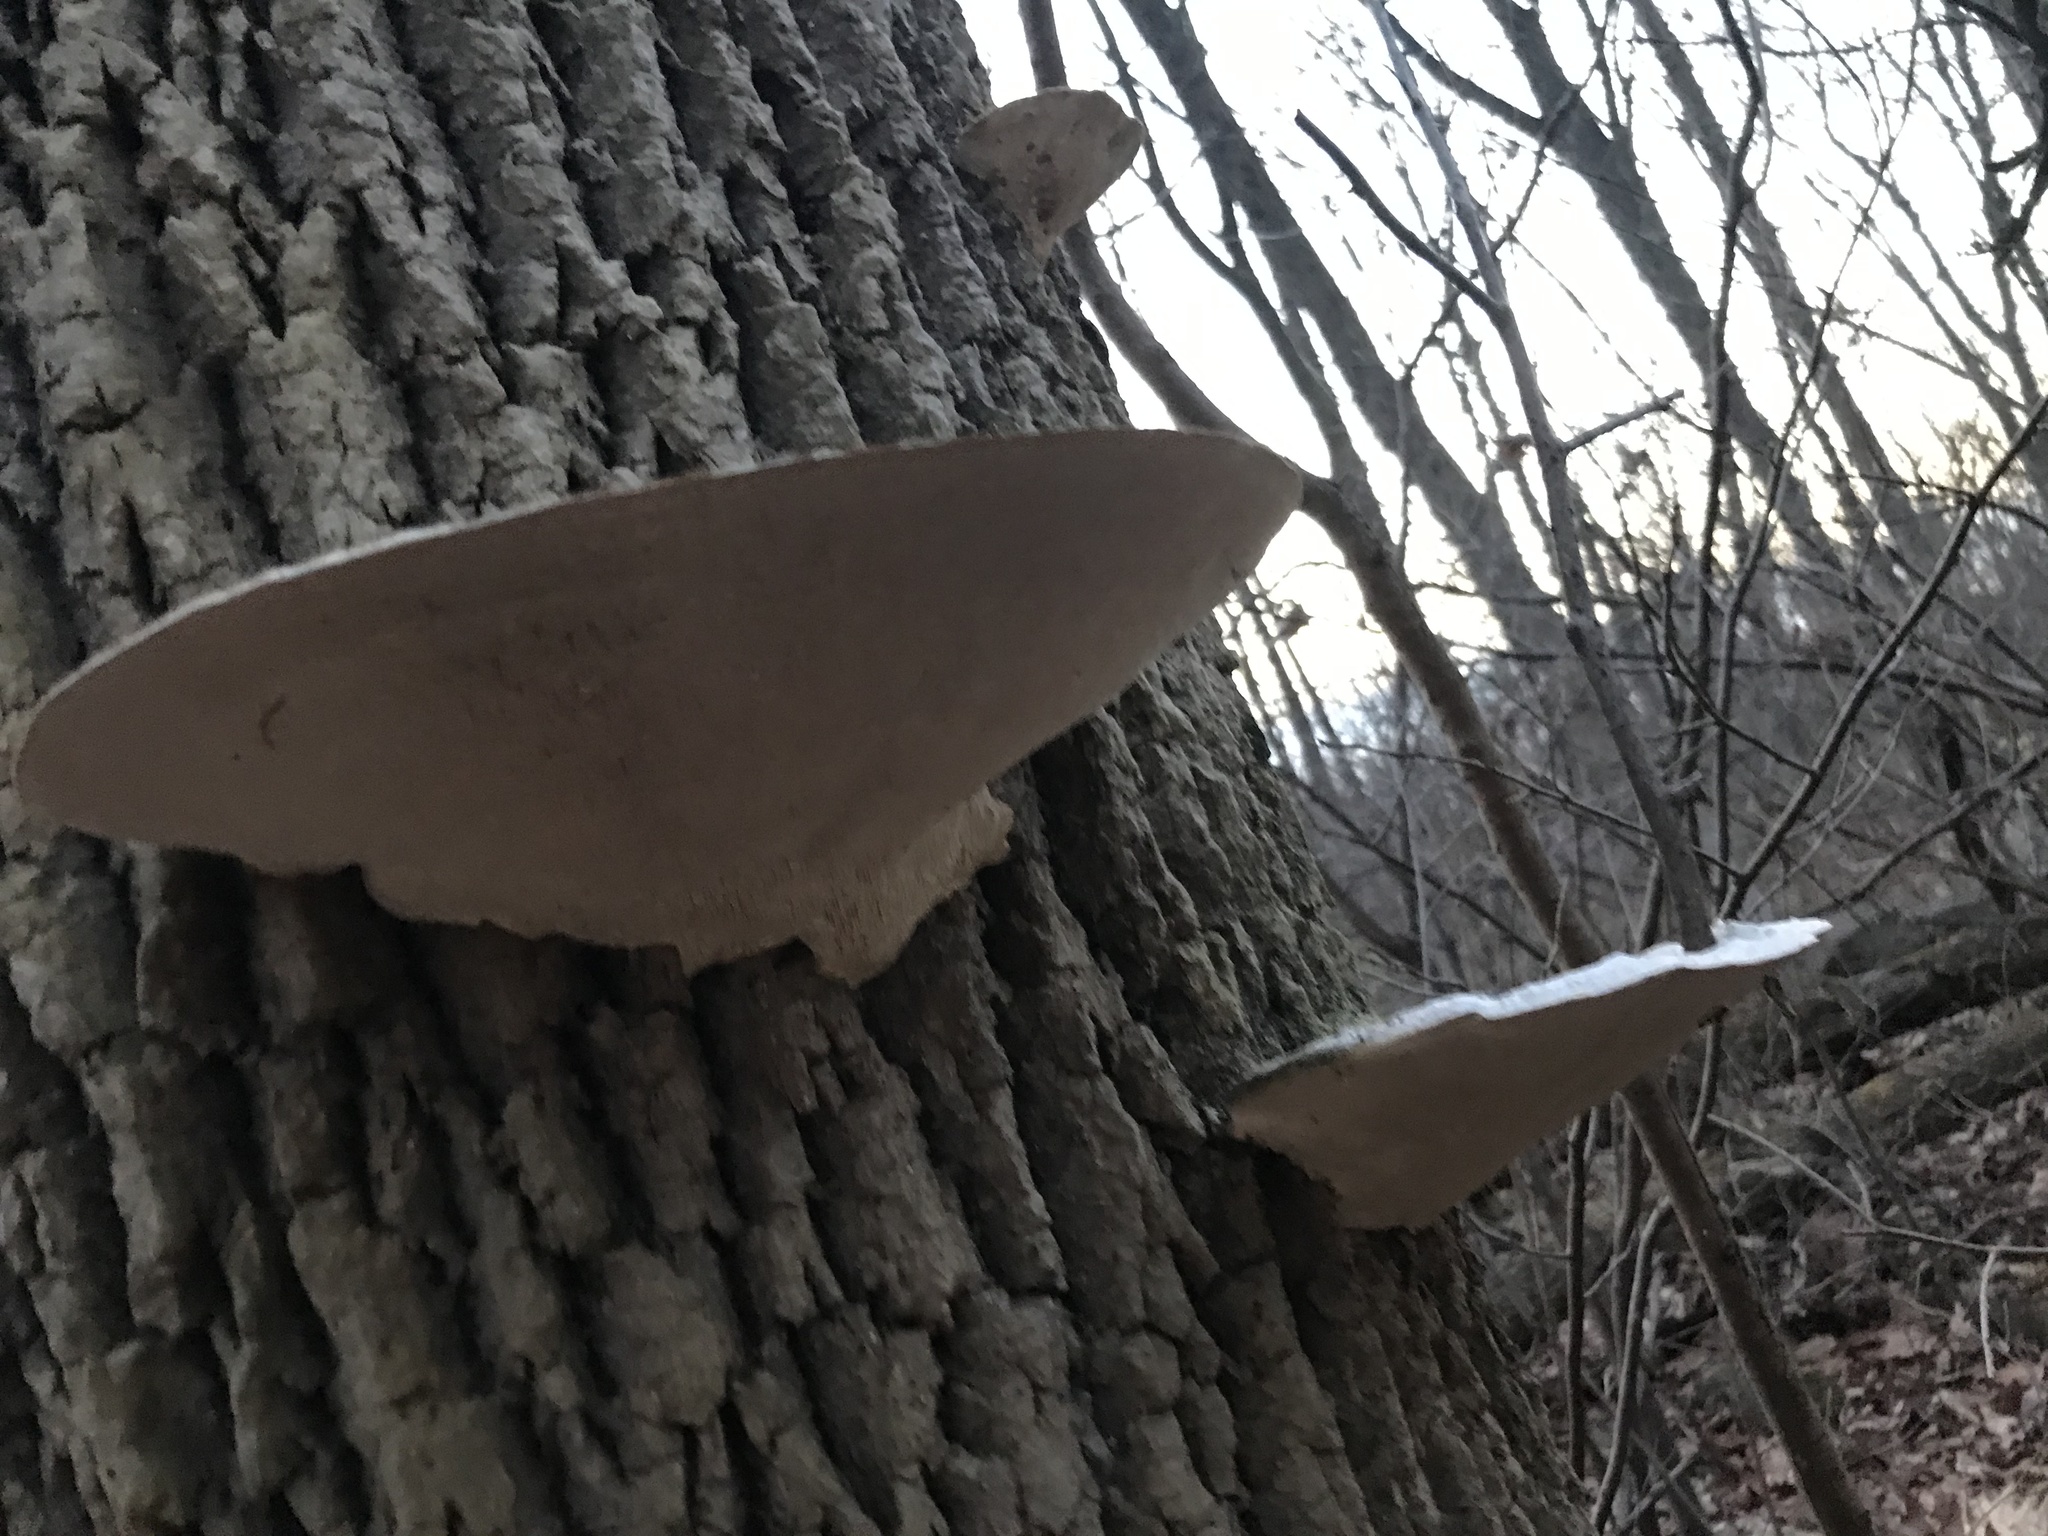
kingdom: Fungi
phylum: Basidiomycota
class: Agaricomycetes
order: Polyporales
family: Polyporaceae
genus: Trametes
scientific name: Trametes gibbosa
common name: Lumpy bracket
